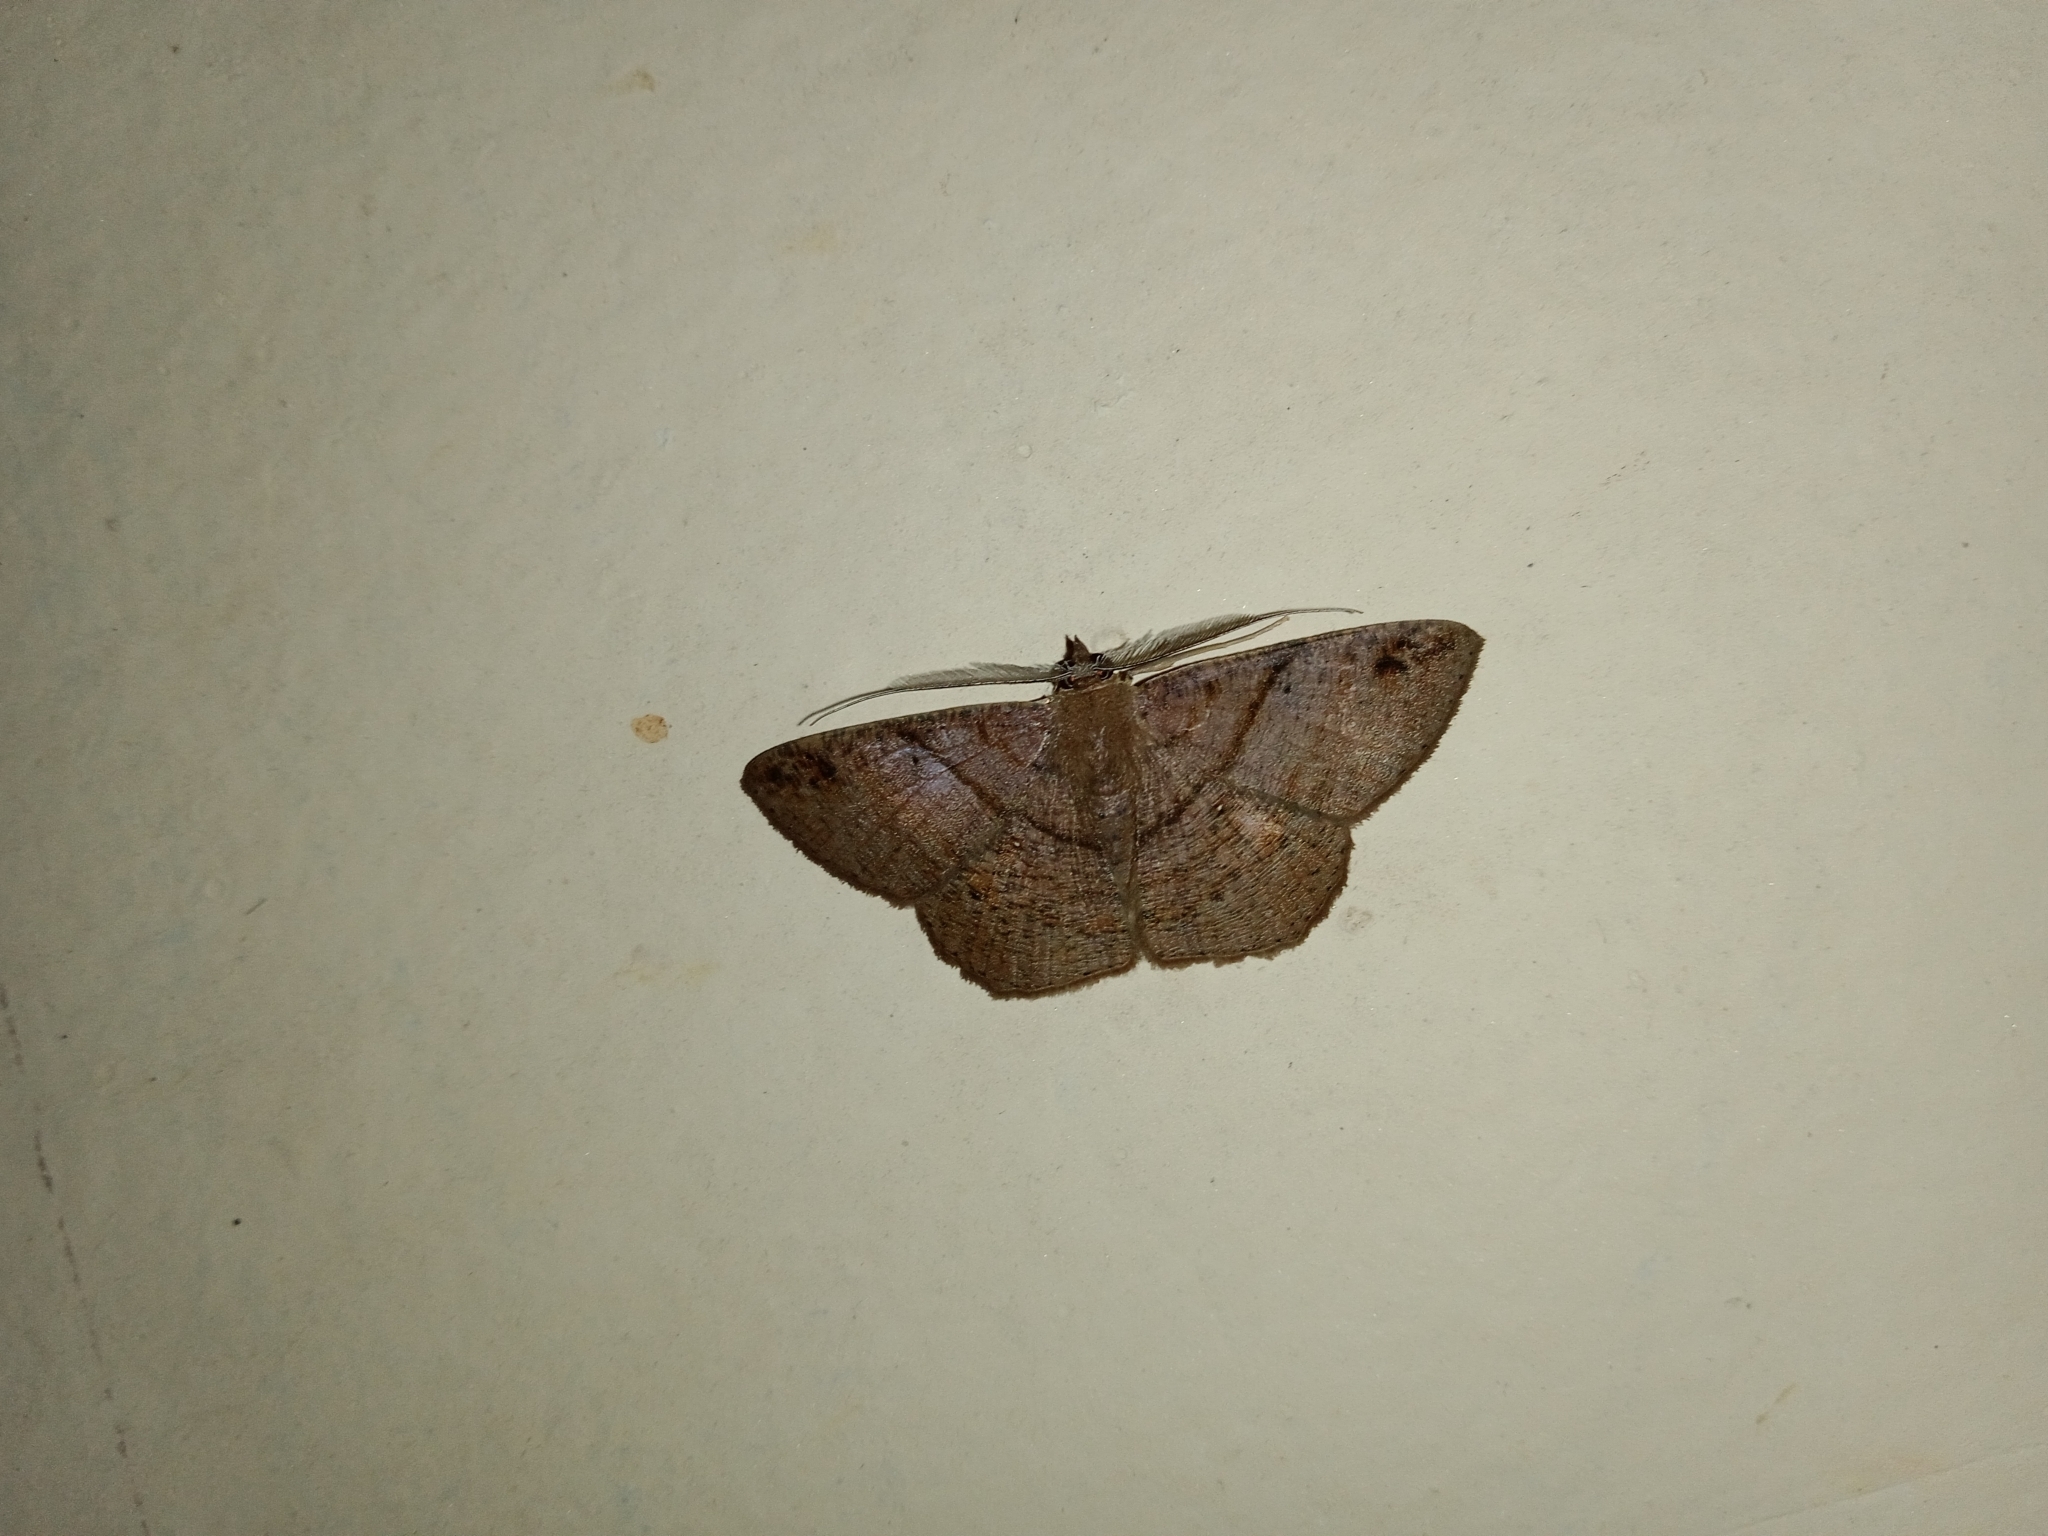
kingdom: Animalia
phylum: Arthropoda
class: Insecta
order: Lepidoptera
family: Geometridae
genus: Petelia
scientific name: Petelia medardaria
